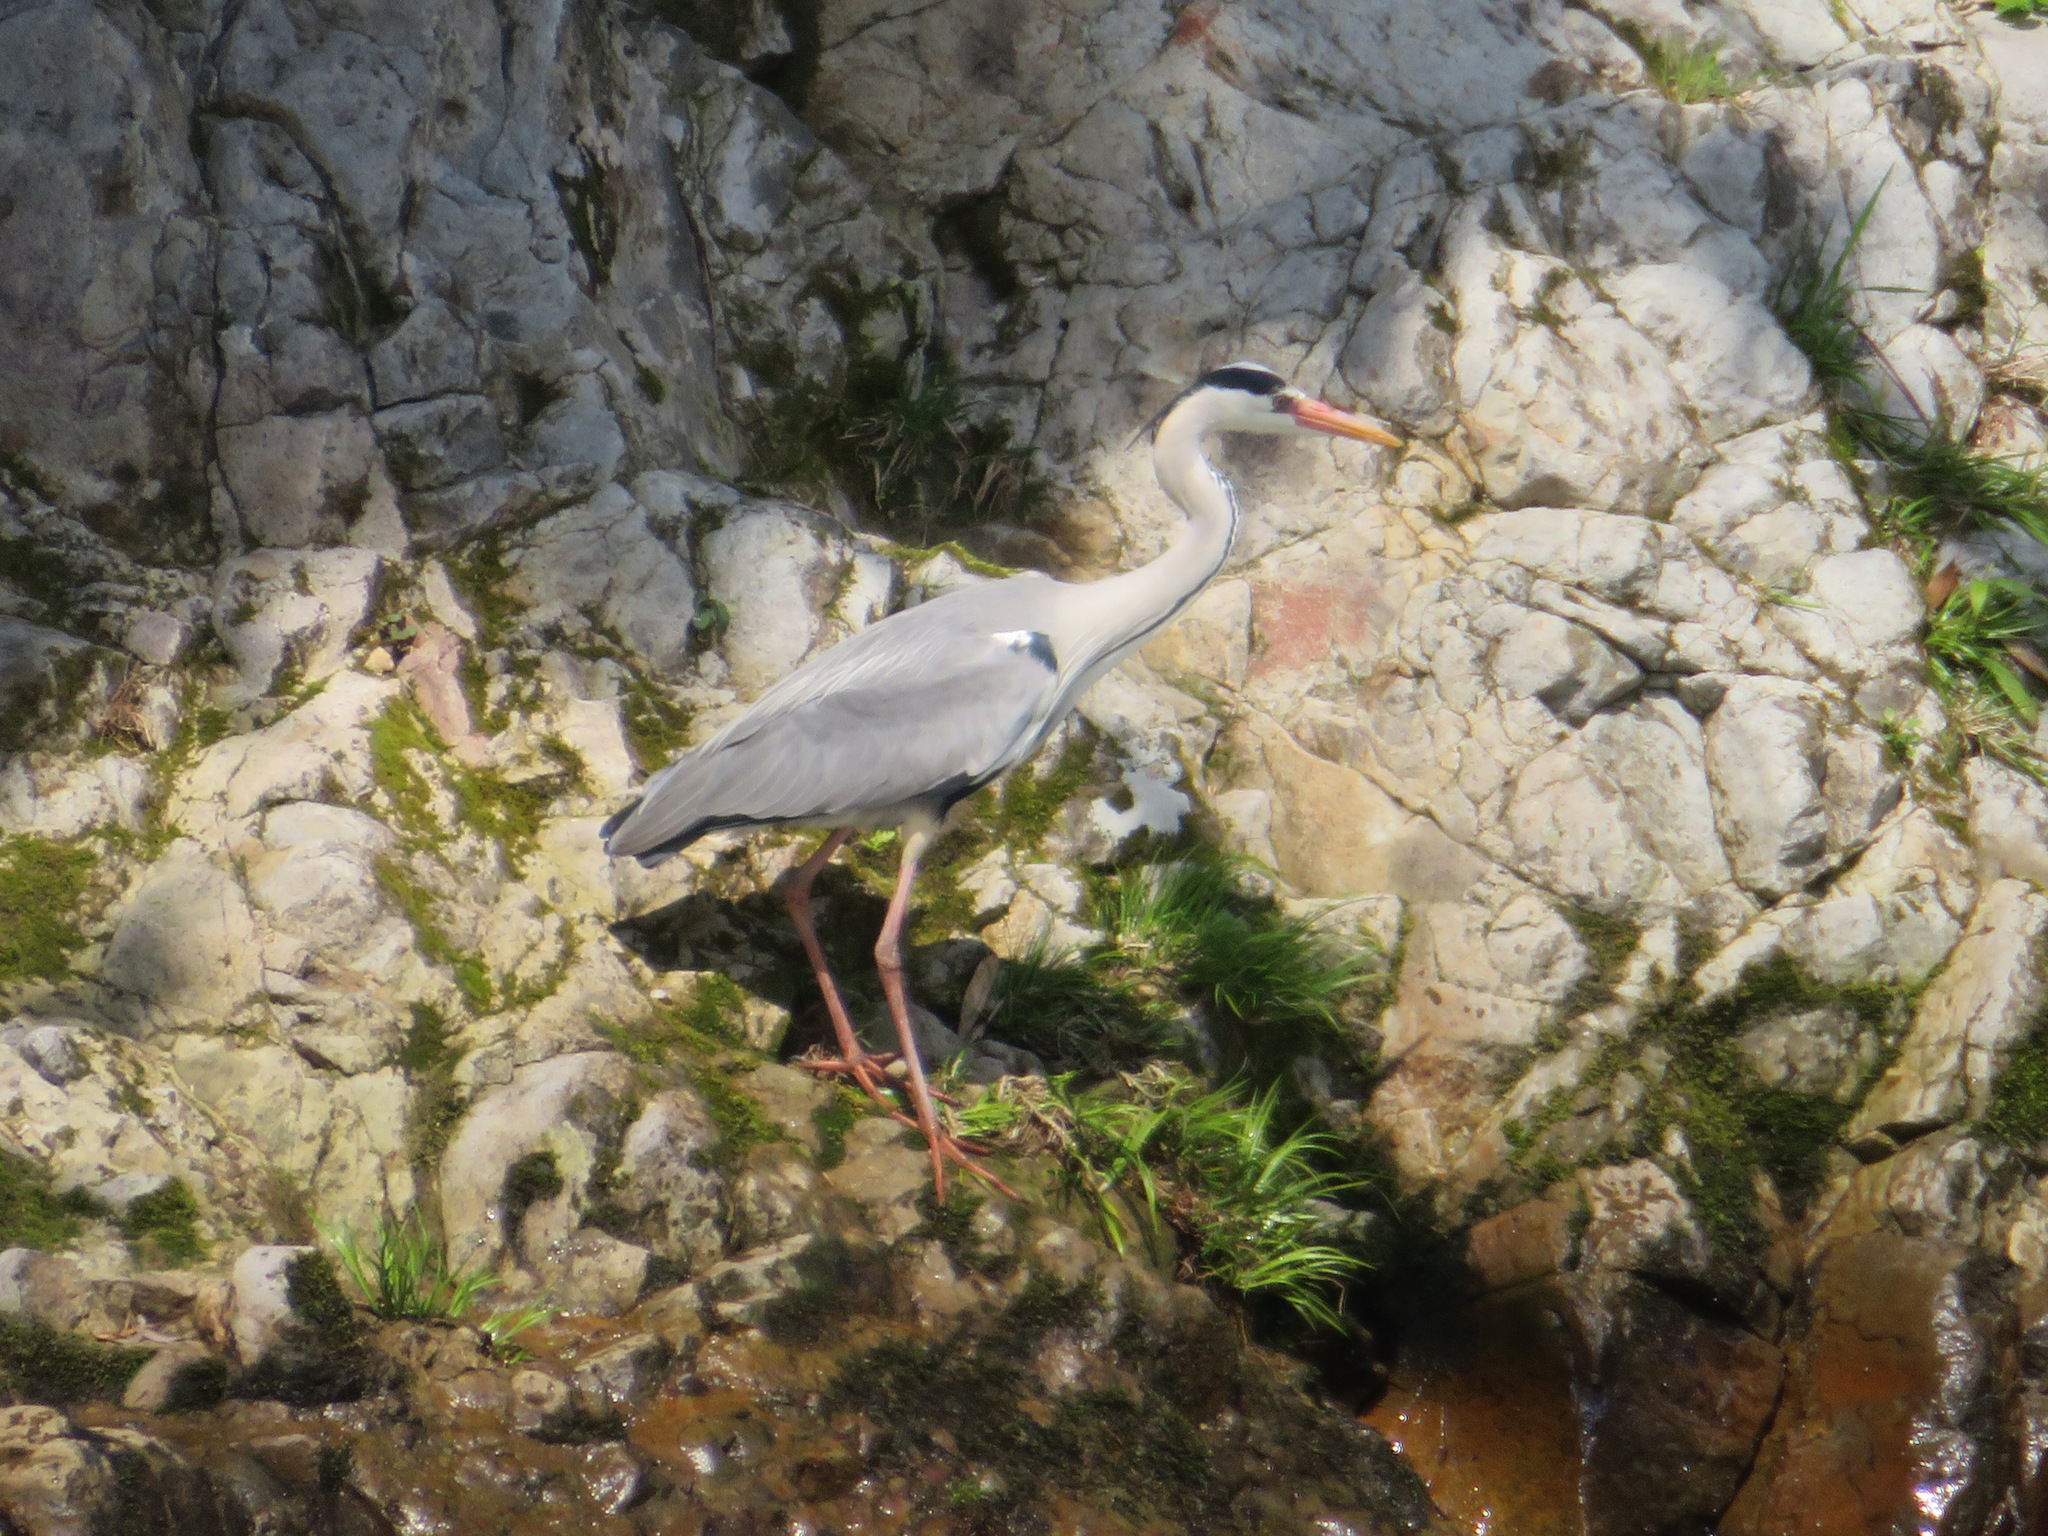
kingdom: Animalia
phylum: Chordata
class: Aves
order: Pelecaniformes
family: Ardeidae
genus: Ardea
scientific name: Ardea cinerea
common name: Grey heron
